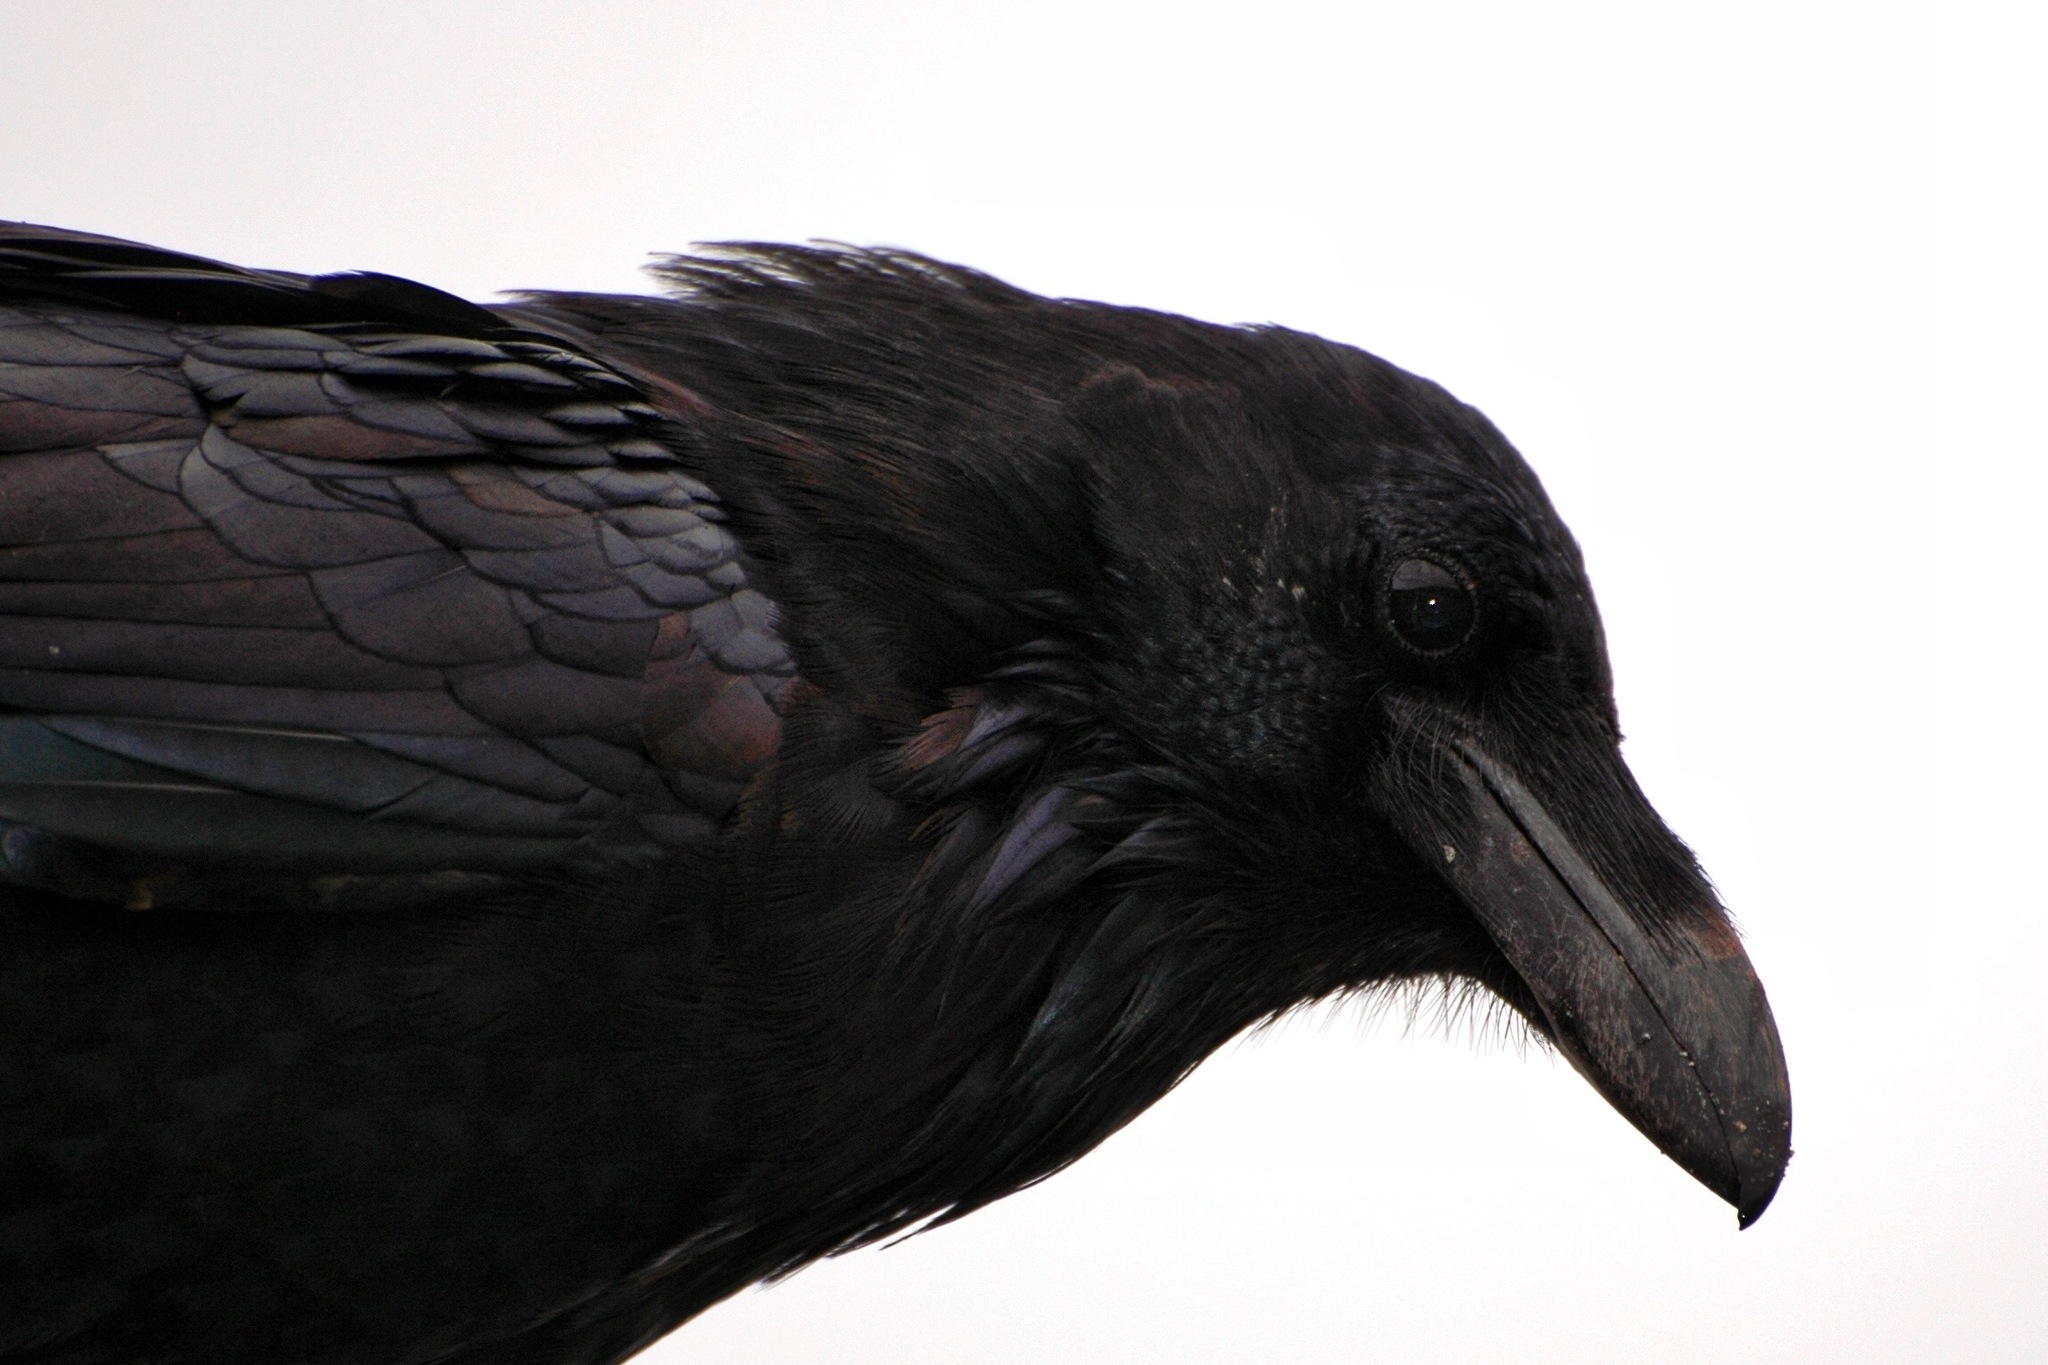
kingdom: Animalia
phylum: Chordata
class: Aves
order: Passeriformes
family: Corvidae
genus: Corvus
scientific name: Corvus corax
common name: Common raven
